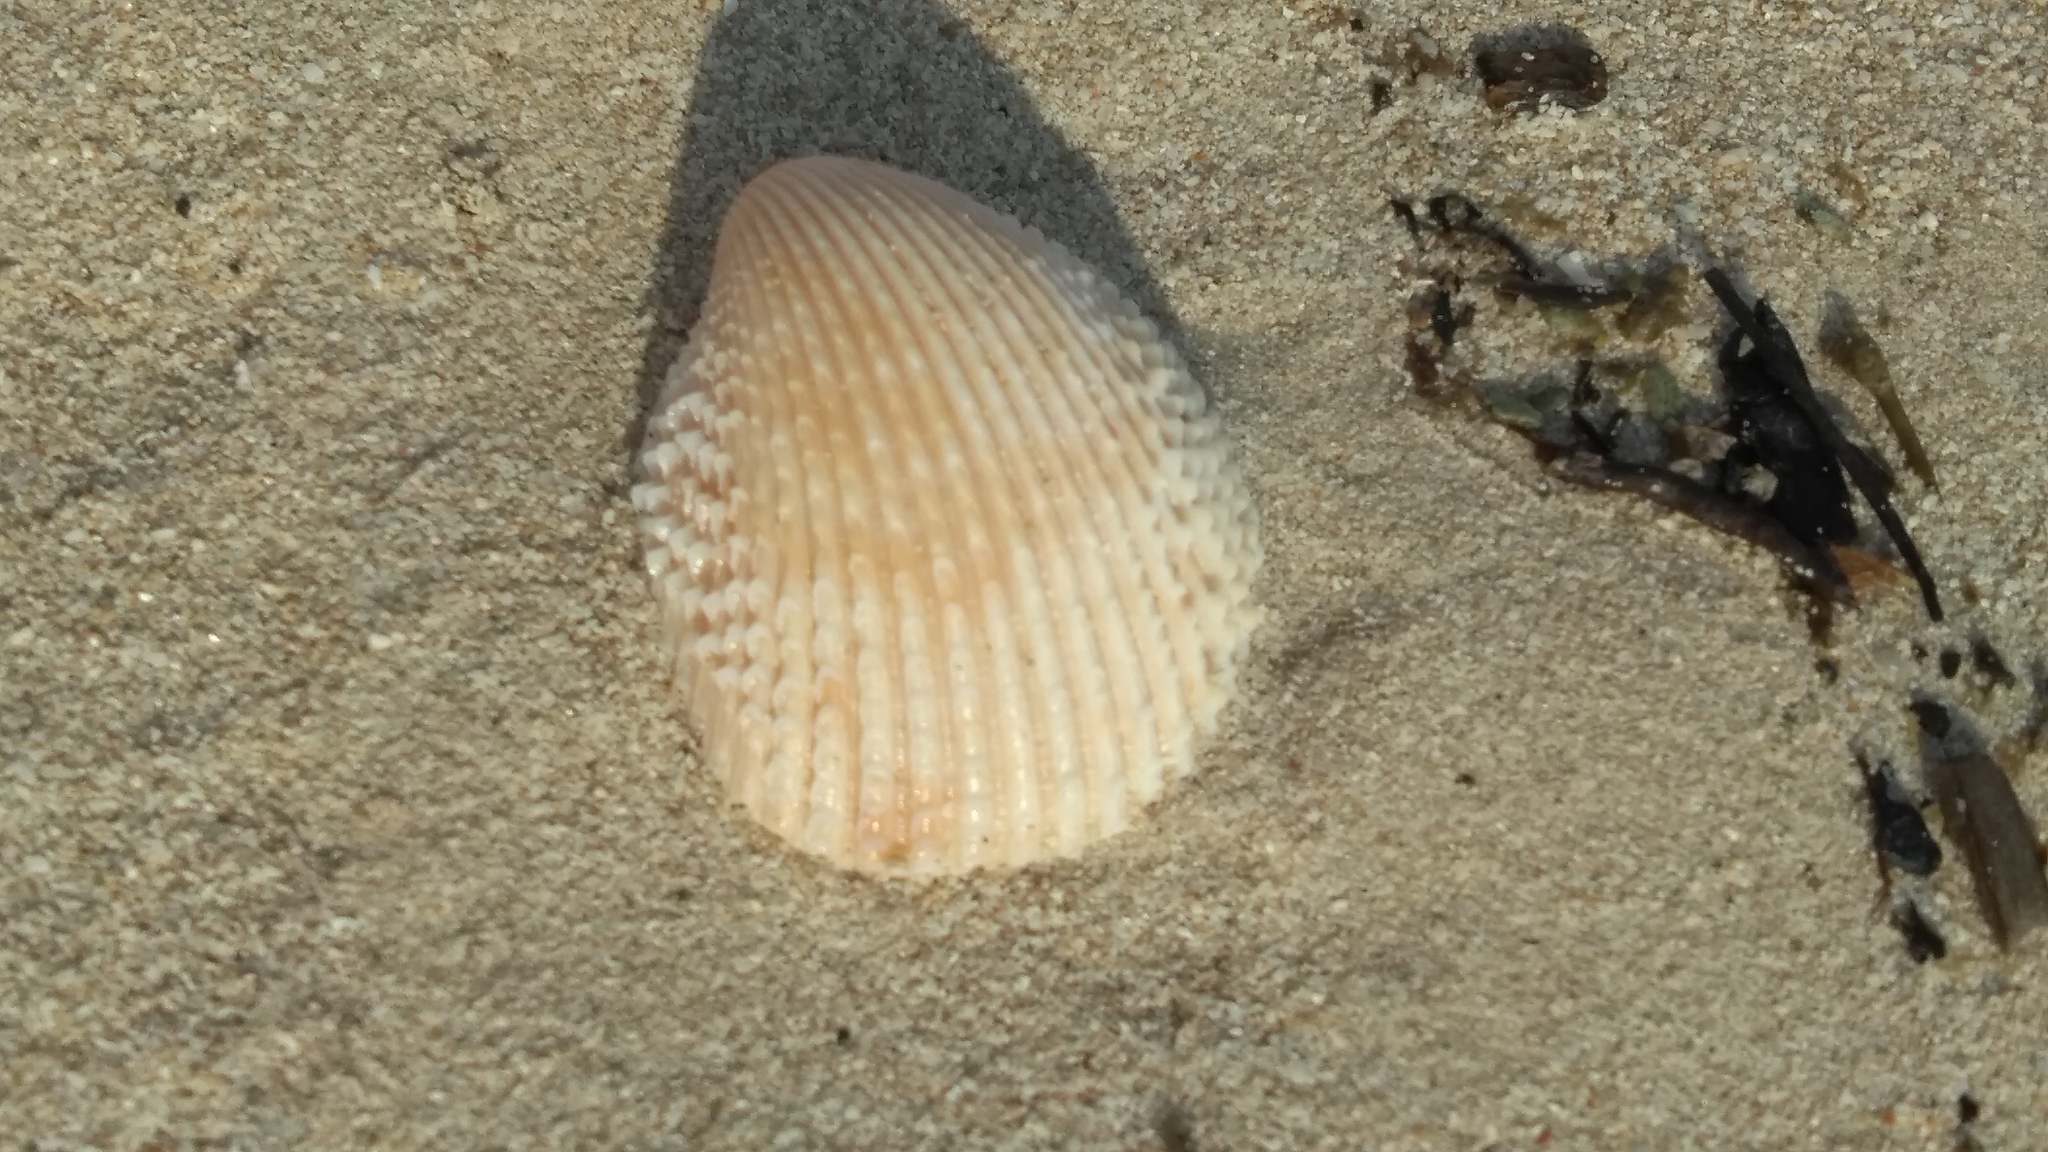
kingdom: Animalia
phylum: Mollusca
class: Bivalvia
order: Cardiida
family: Cardiidae
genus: Dinocardium
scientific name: Dinocardium robustum
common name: Atlantic giant cockle
